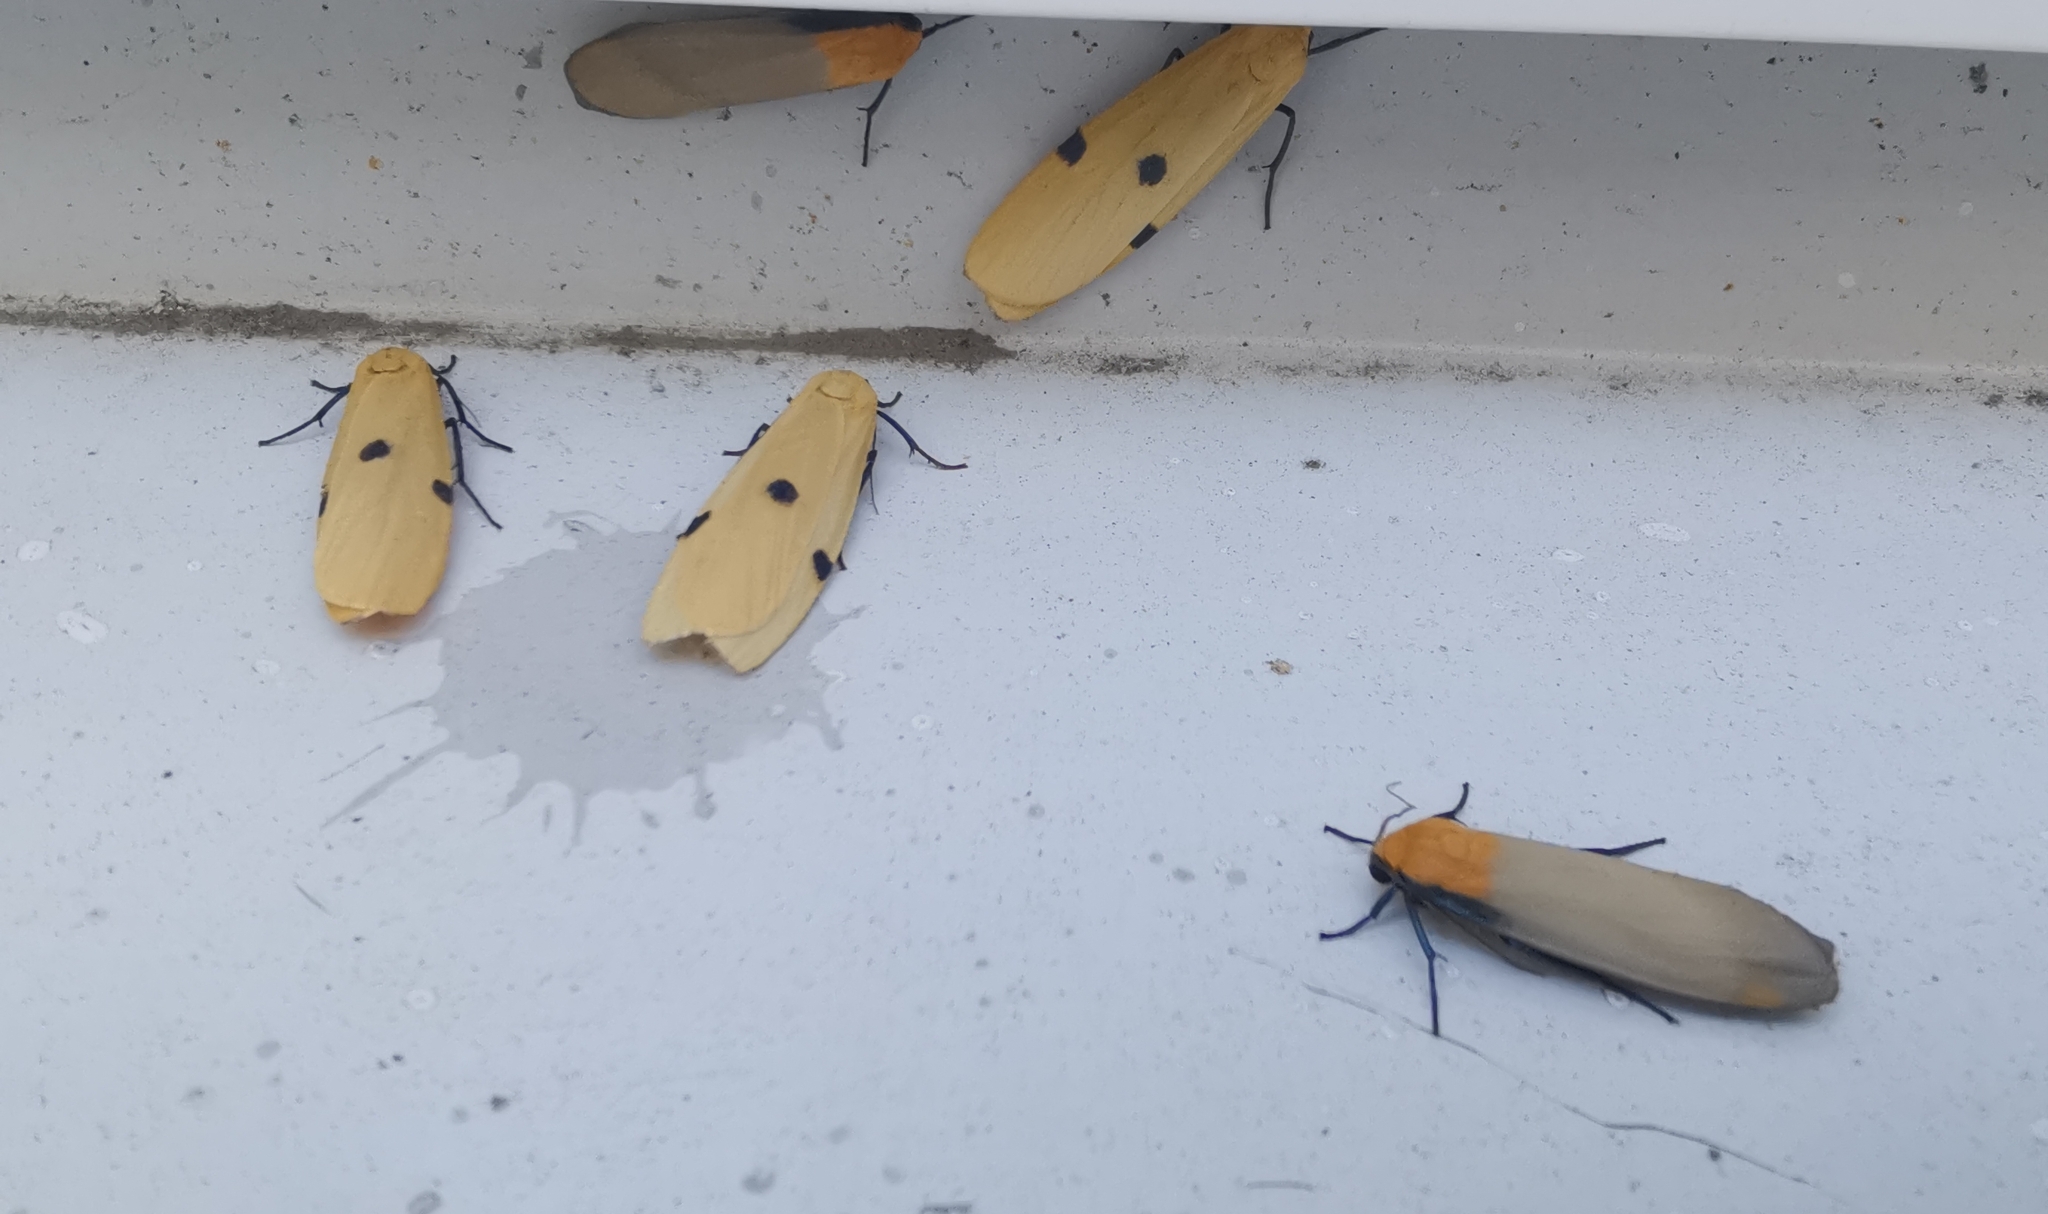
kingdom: Animalia
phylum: Arthropoda
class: Insecta
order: Lepidoptera
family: Erebidae
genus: Lithosia
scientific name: Lithosia quadra
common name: Four-spotted footman
